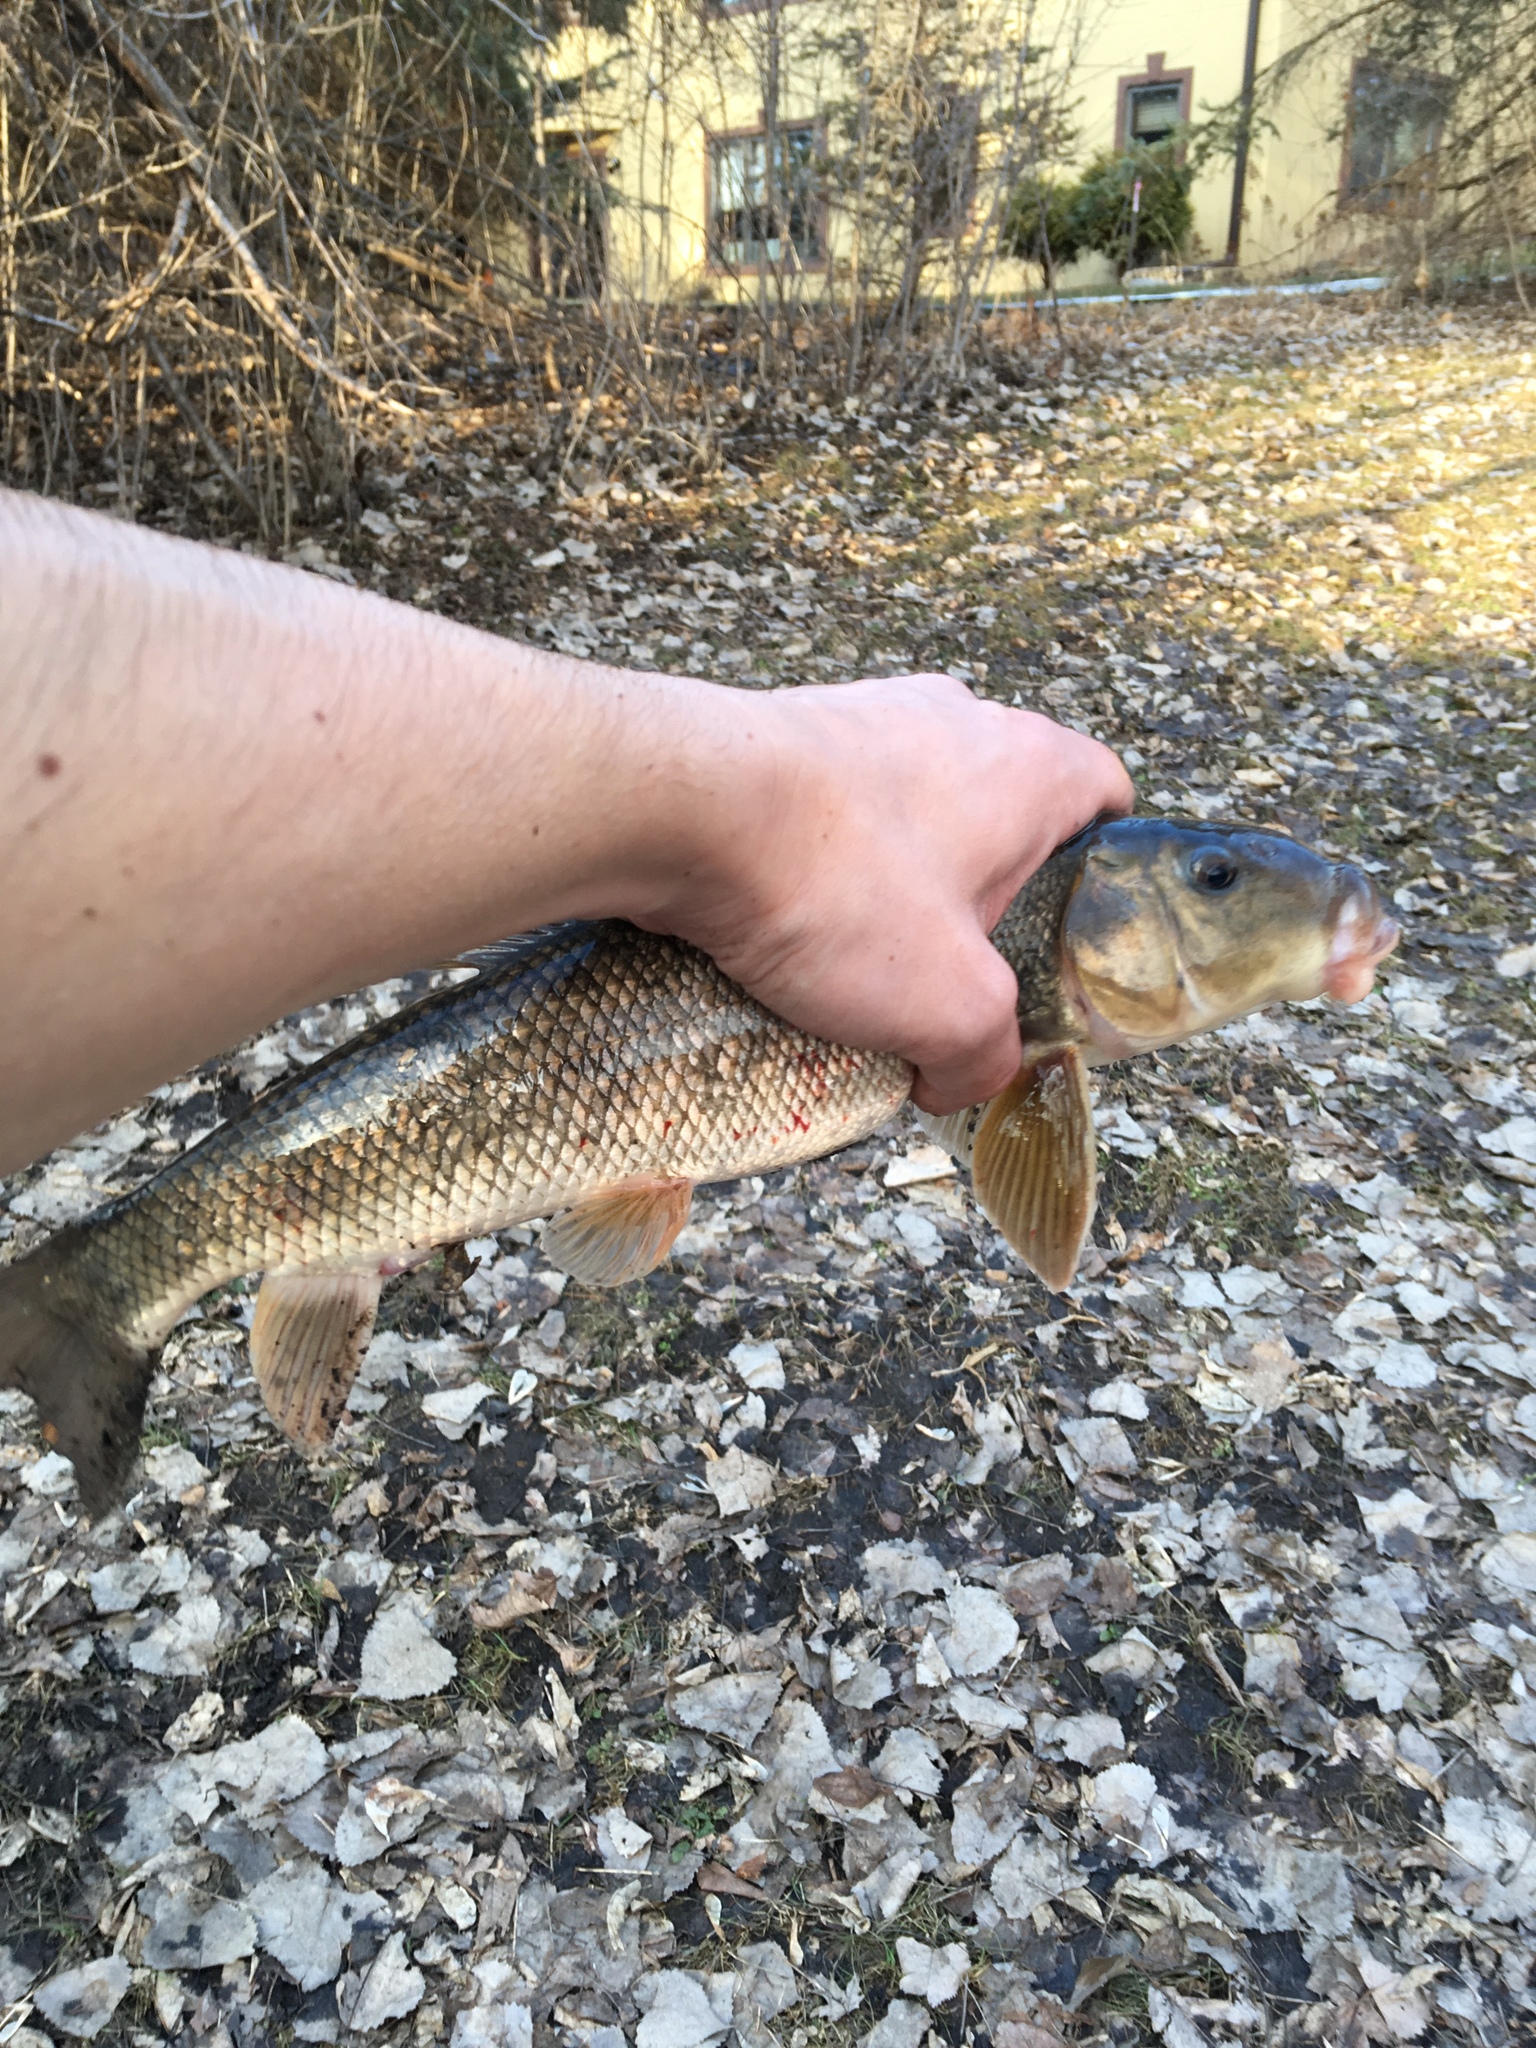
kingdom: Animalia
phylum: Chordata
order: Cypriniformes
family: Catostomidae
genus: Catostomus
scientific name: Catostomus commersonii
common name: White sucker
